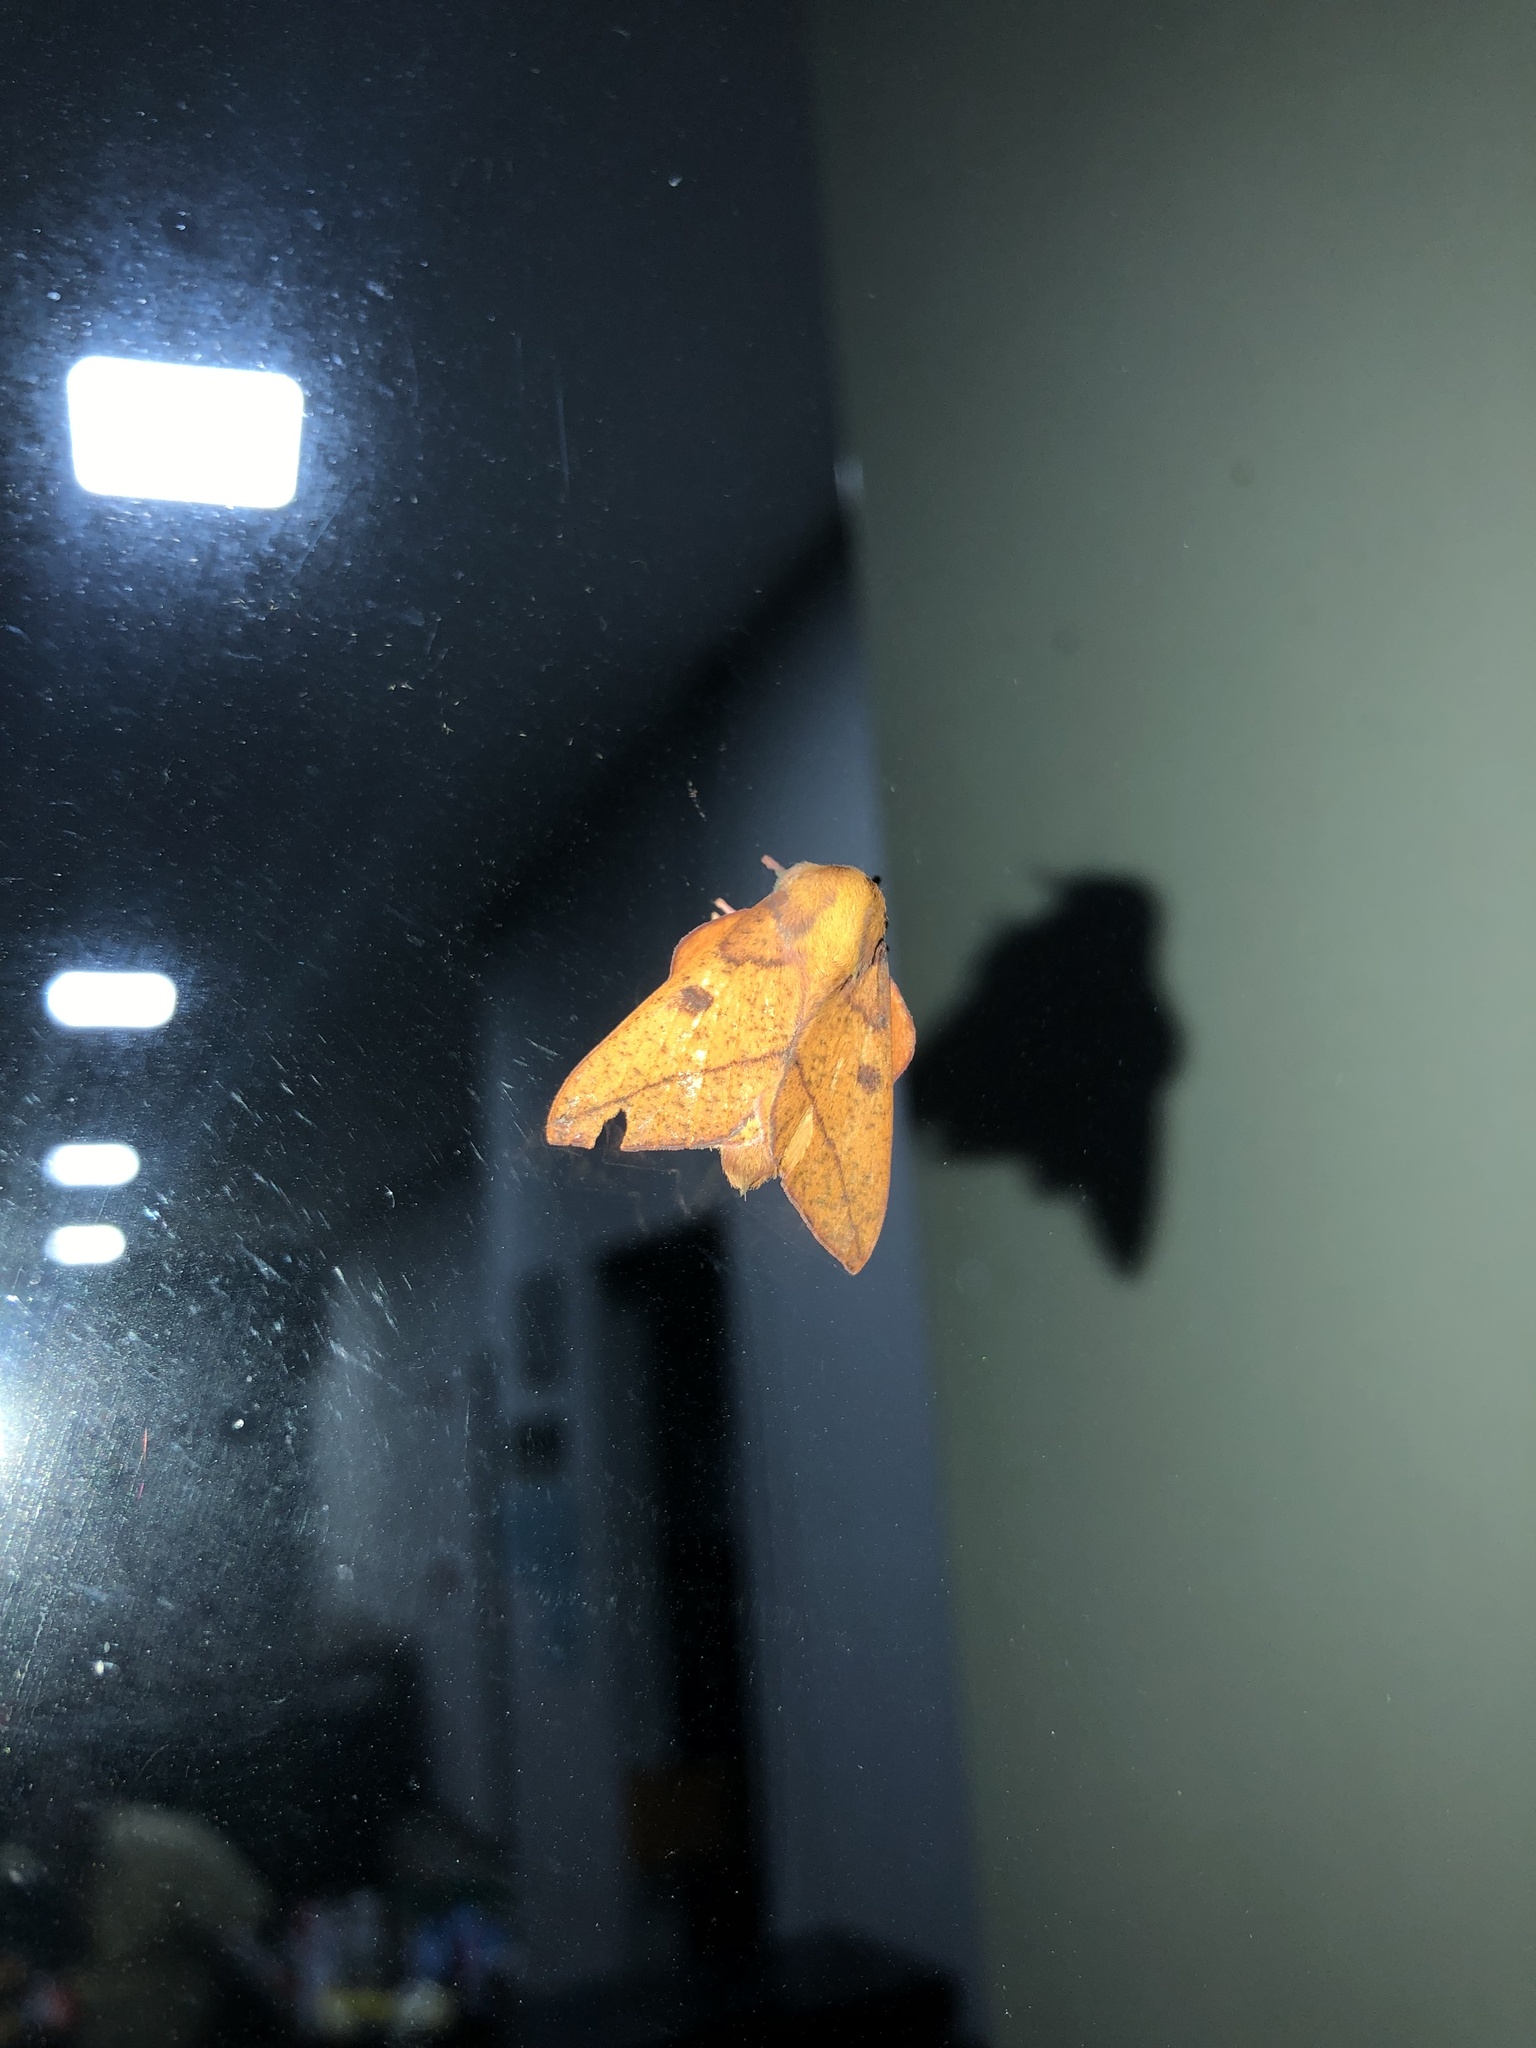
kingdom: Animalia
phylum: Arthropoda
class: Insecta
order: Lepidoptera
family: Saturniidae
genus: Adeloneivaia
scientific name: Adeloneivaia minuta
